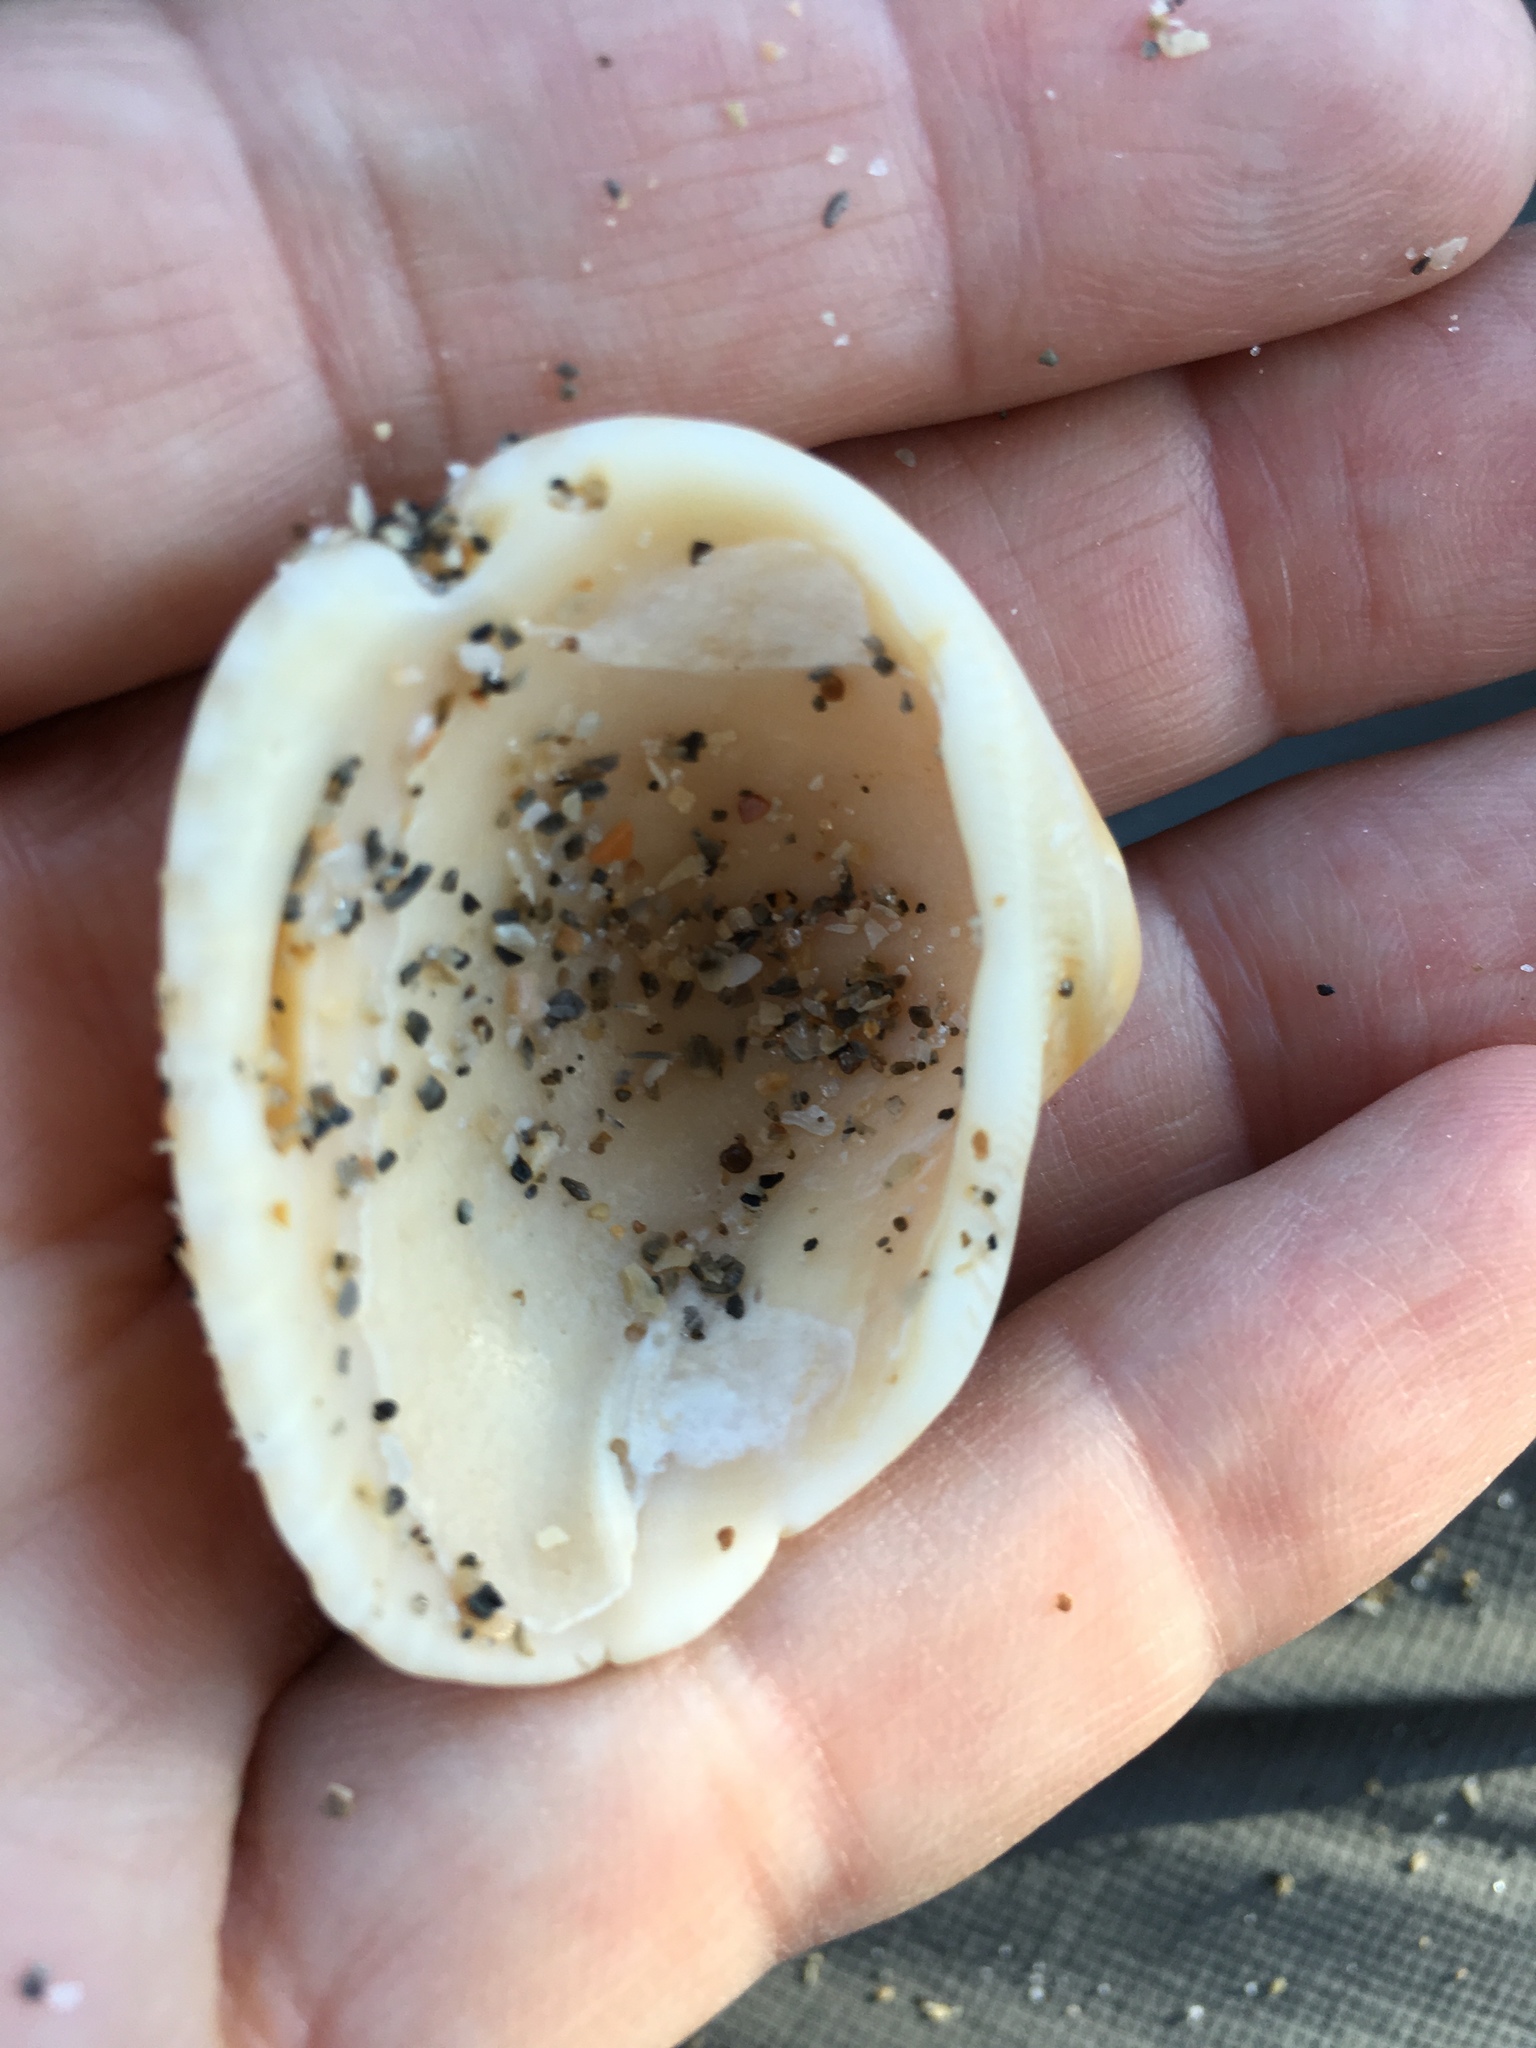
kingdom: Animalia
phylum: Mollusca
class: Bivalvia
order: Arcida
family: Noetiidae
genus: Noetia
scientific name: Noetia ponderosa
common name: Ponderous ark
